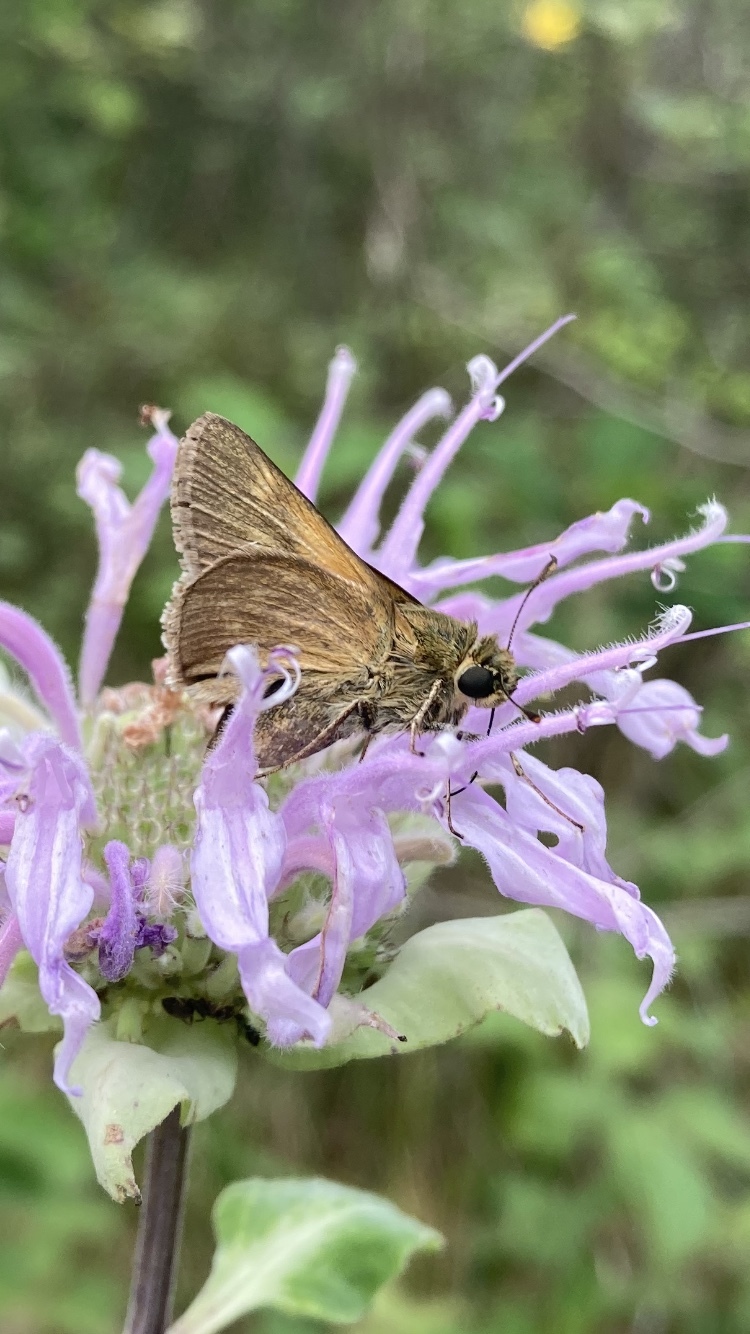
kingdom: Animalia
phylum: Arthropoda
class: Insecta
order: Lepidoptera
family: Hesperiidae
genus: Polites
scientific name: Polites origenes
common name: Crossline skipper
